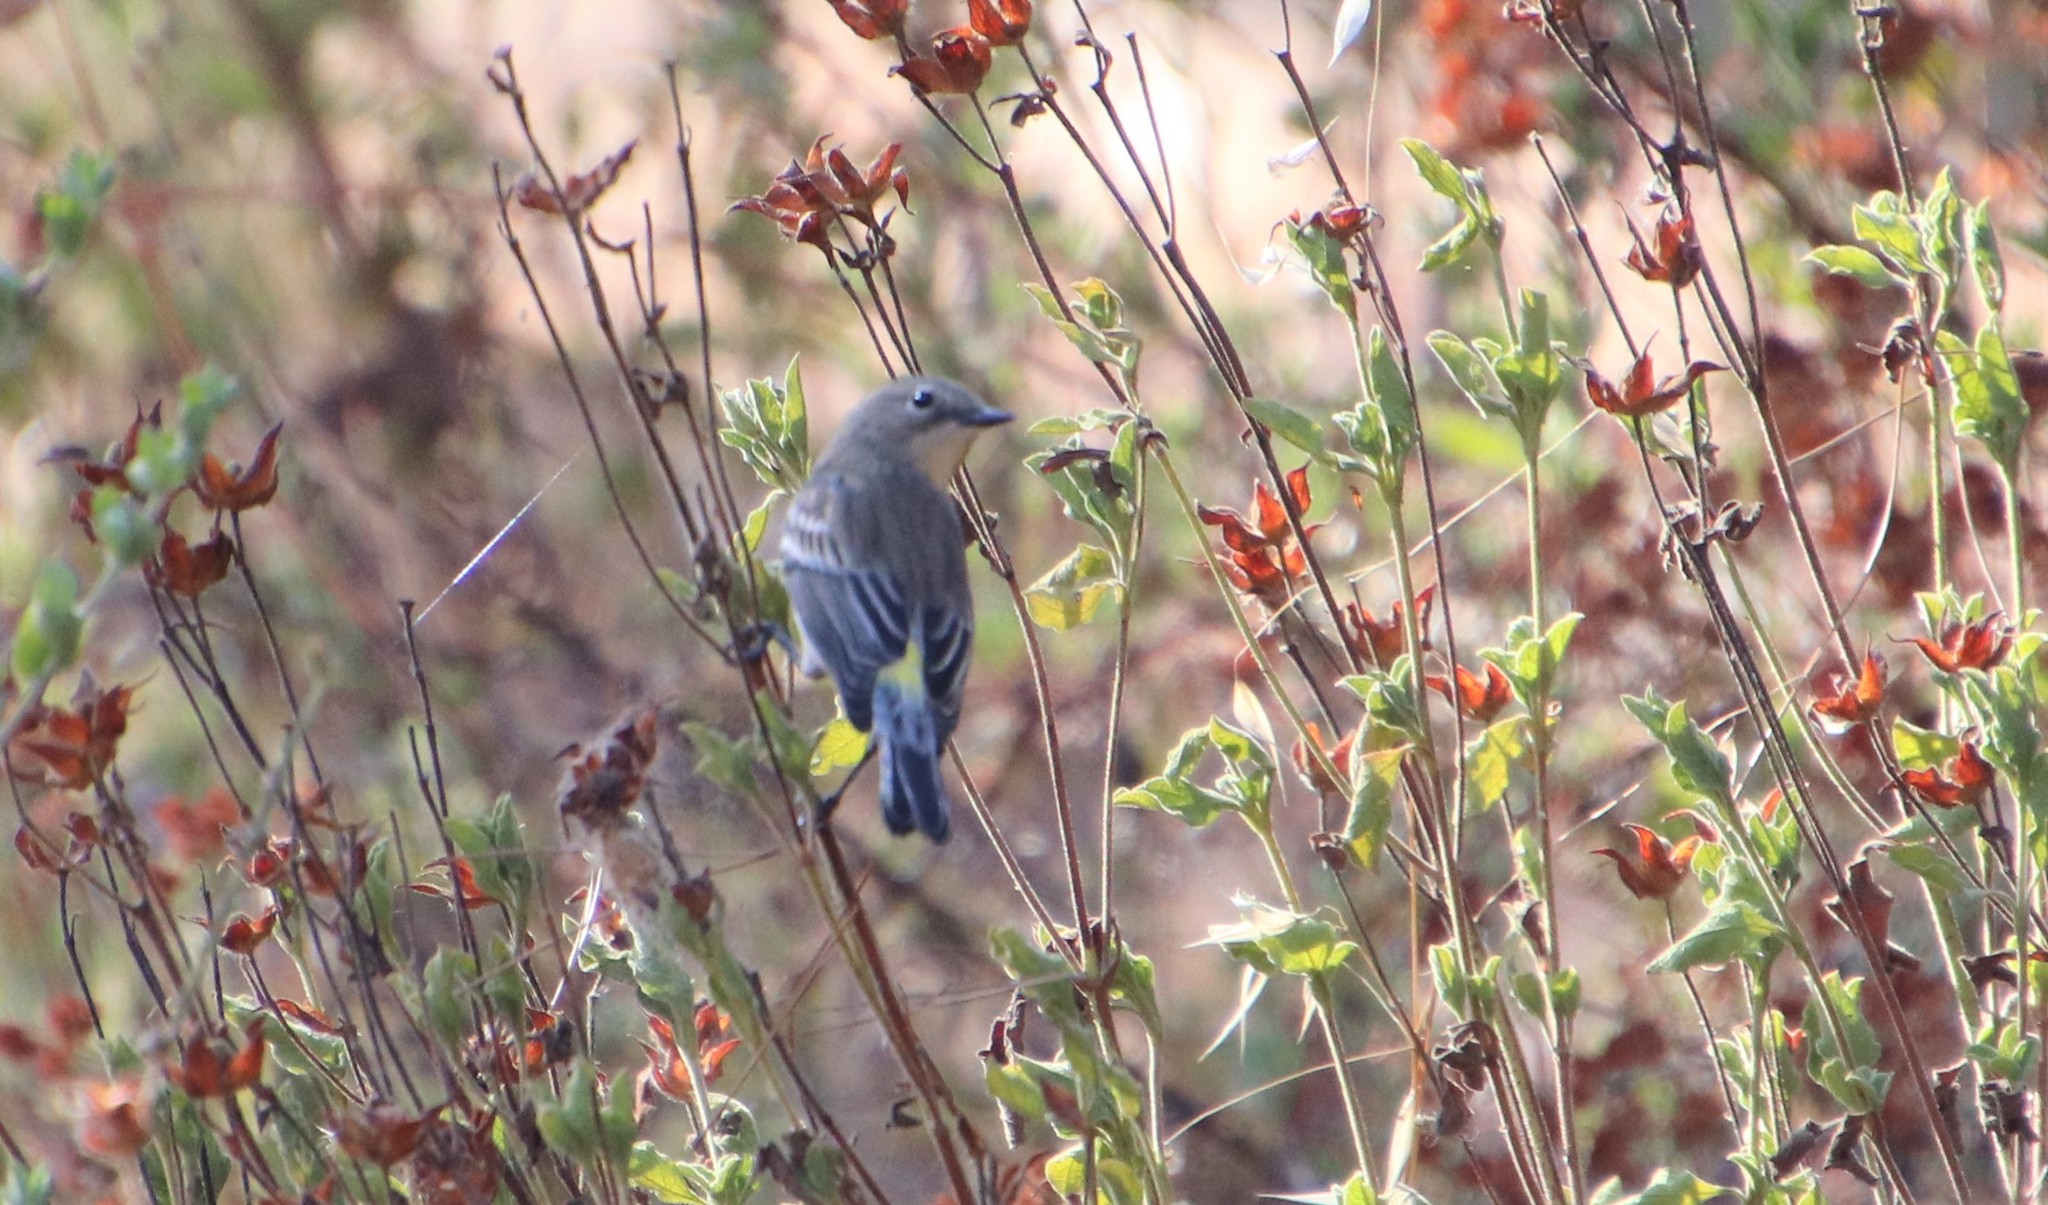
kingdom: Animalia
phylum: Chordata
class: Aves
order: Passeriformes
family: Parulidae
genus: Setophaga
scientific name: Setophaga auduboni
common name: Audubon's warbler
